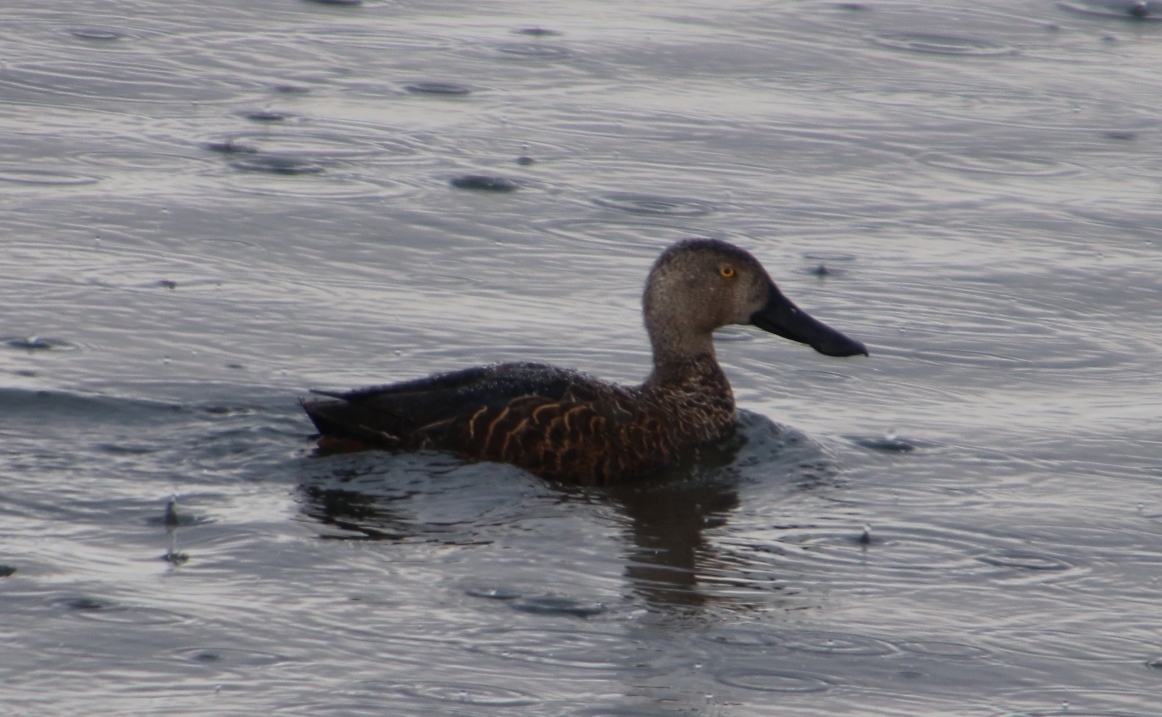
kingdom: Animalia
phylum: Chordata
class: Aves
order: Anseriformes
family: Anatidae
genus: Spatula
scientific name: Spatula smithii
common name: Cape shoveler
